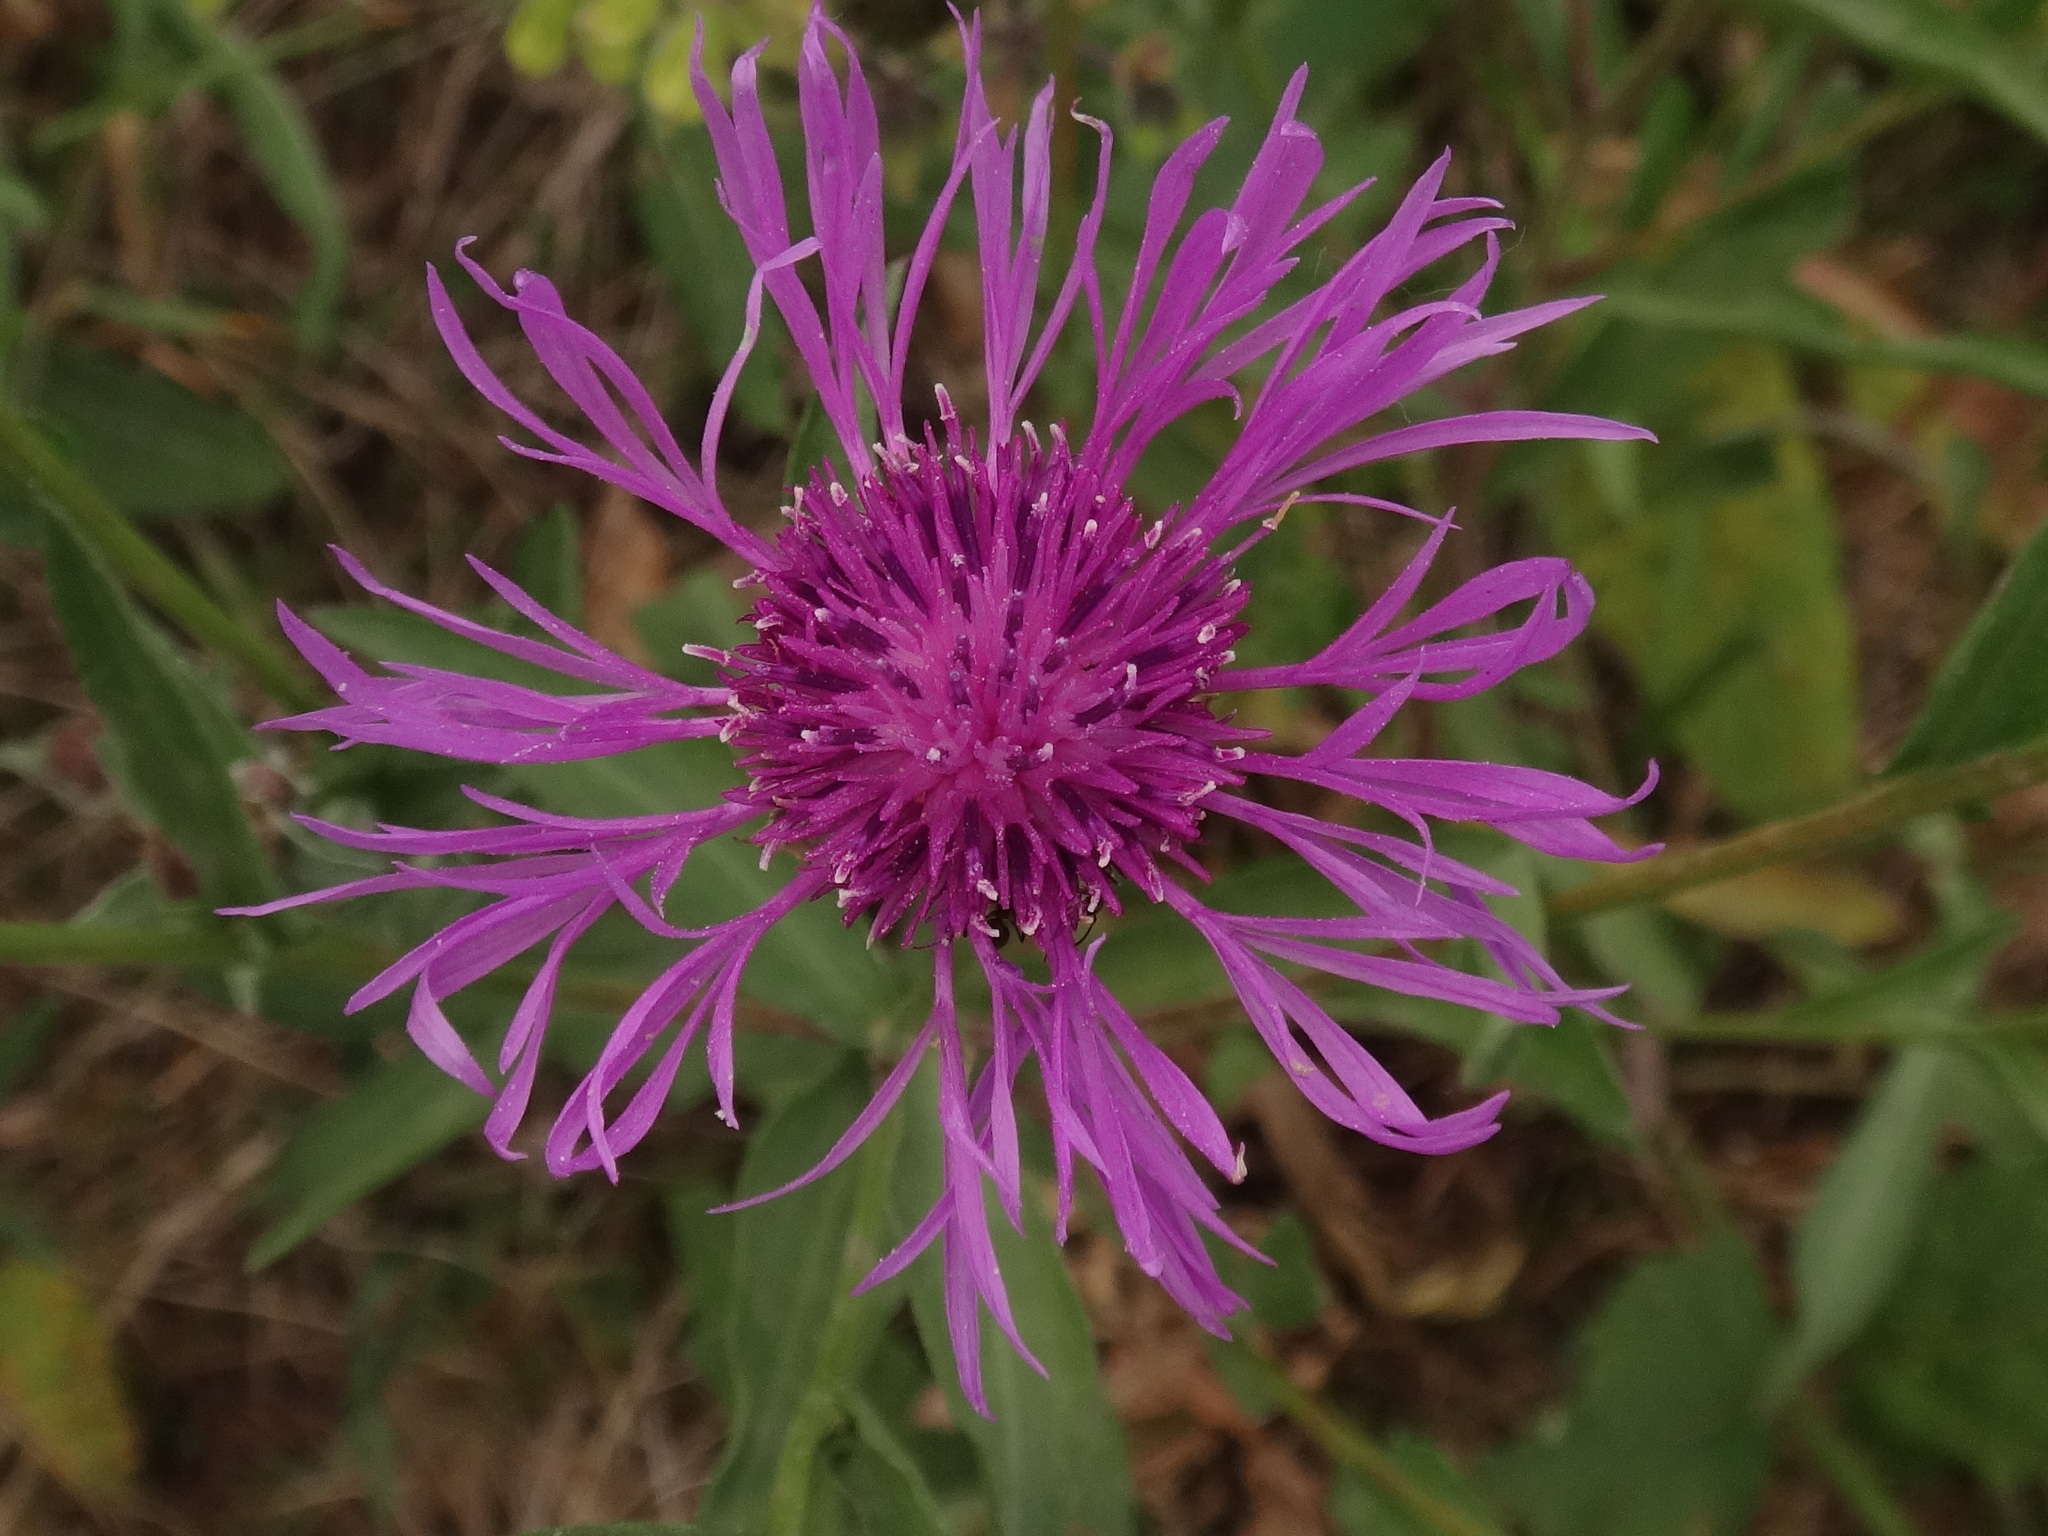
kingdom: Plantae
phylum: Tracheophyta
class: Magnoliopsida
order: Asterales
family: Asteraceae
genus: Centaurea
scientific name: Centaurea jacea
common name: Brown knapweed
